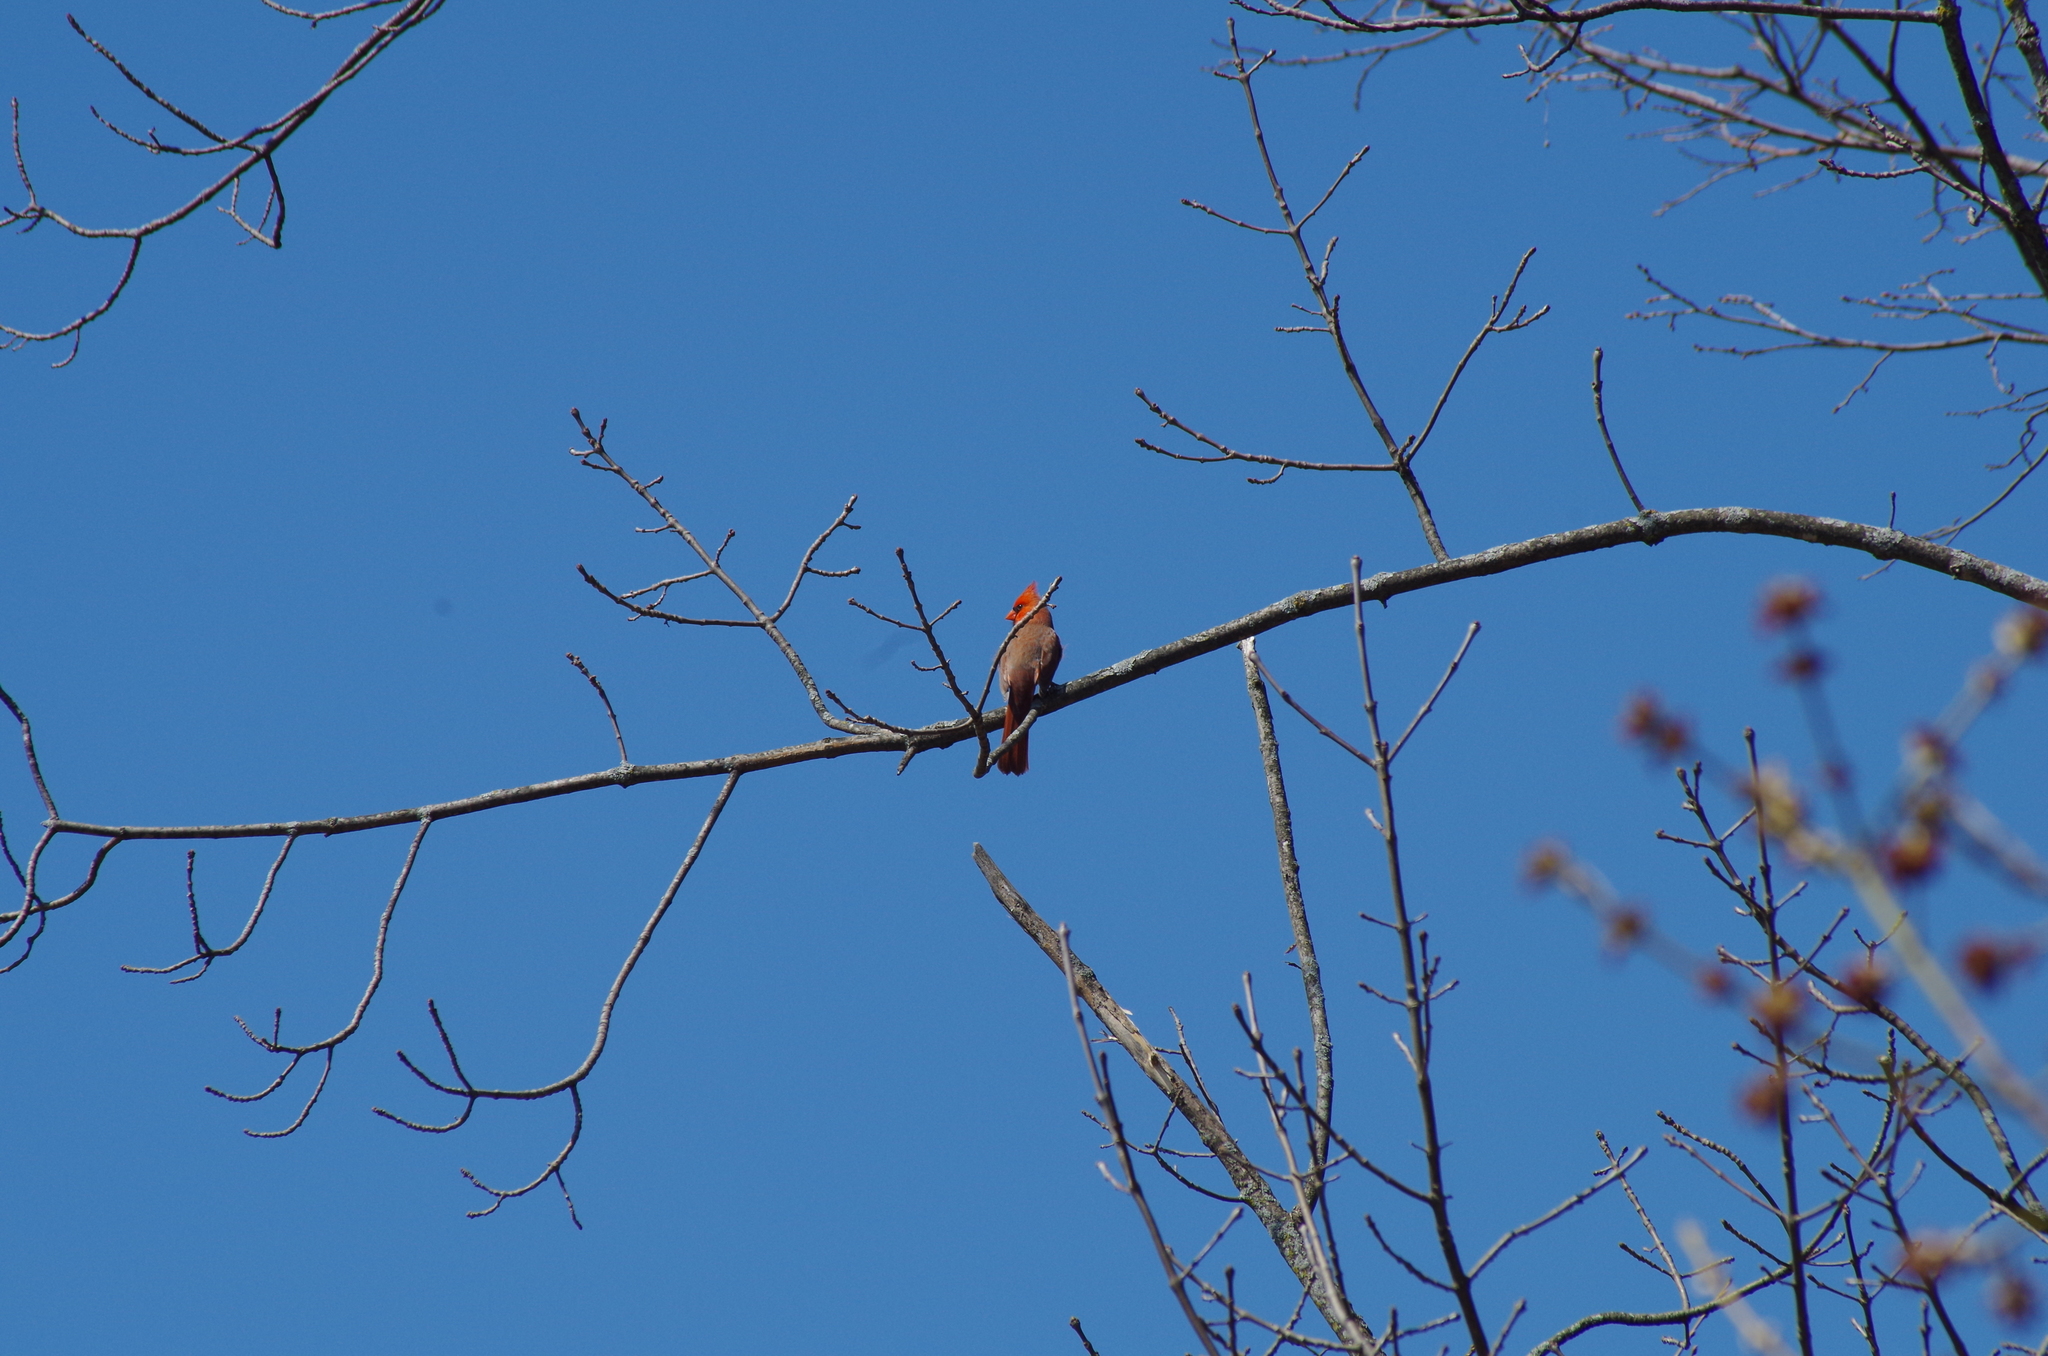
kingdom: Animalia
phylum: Chordata
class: Aves
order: Passeriformes
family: Cardinalidae
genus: Cardinalis
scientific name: Cardinalis cardinalis
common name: Northern cardinal
